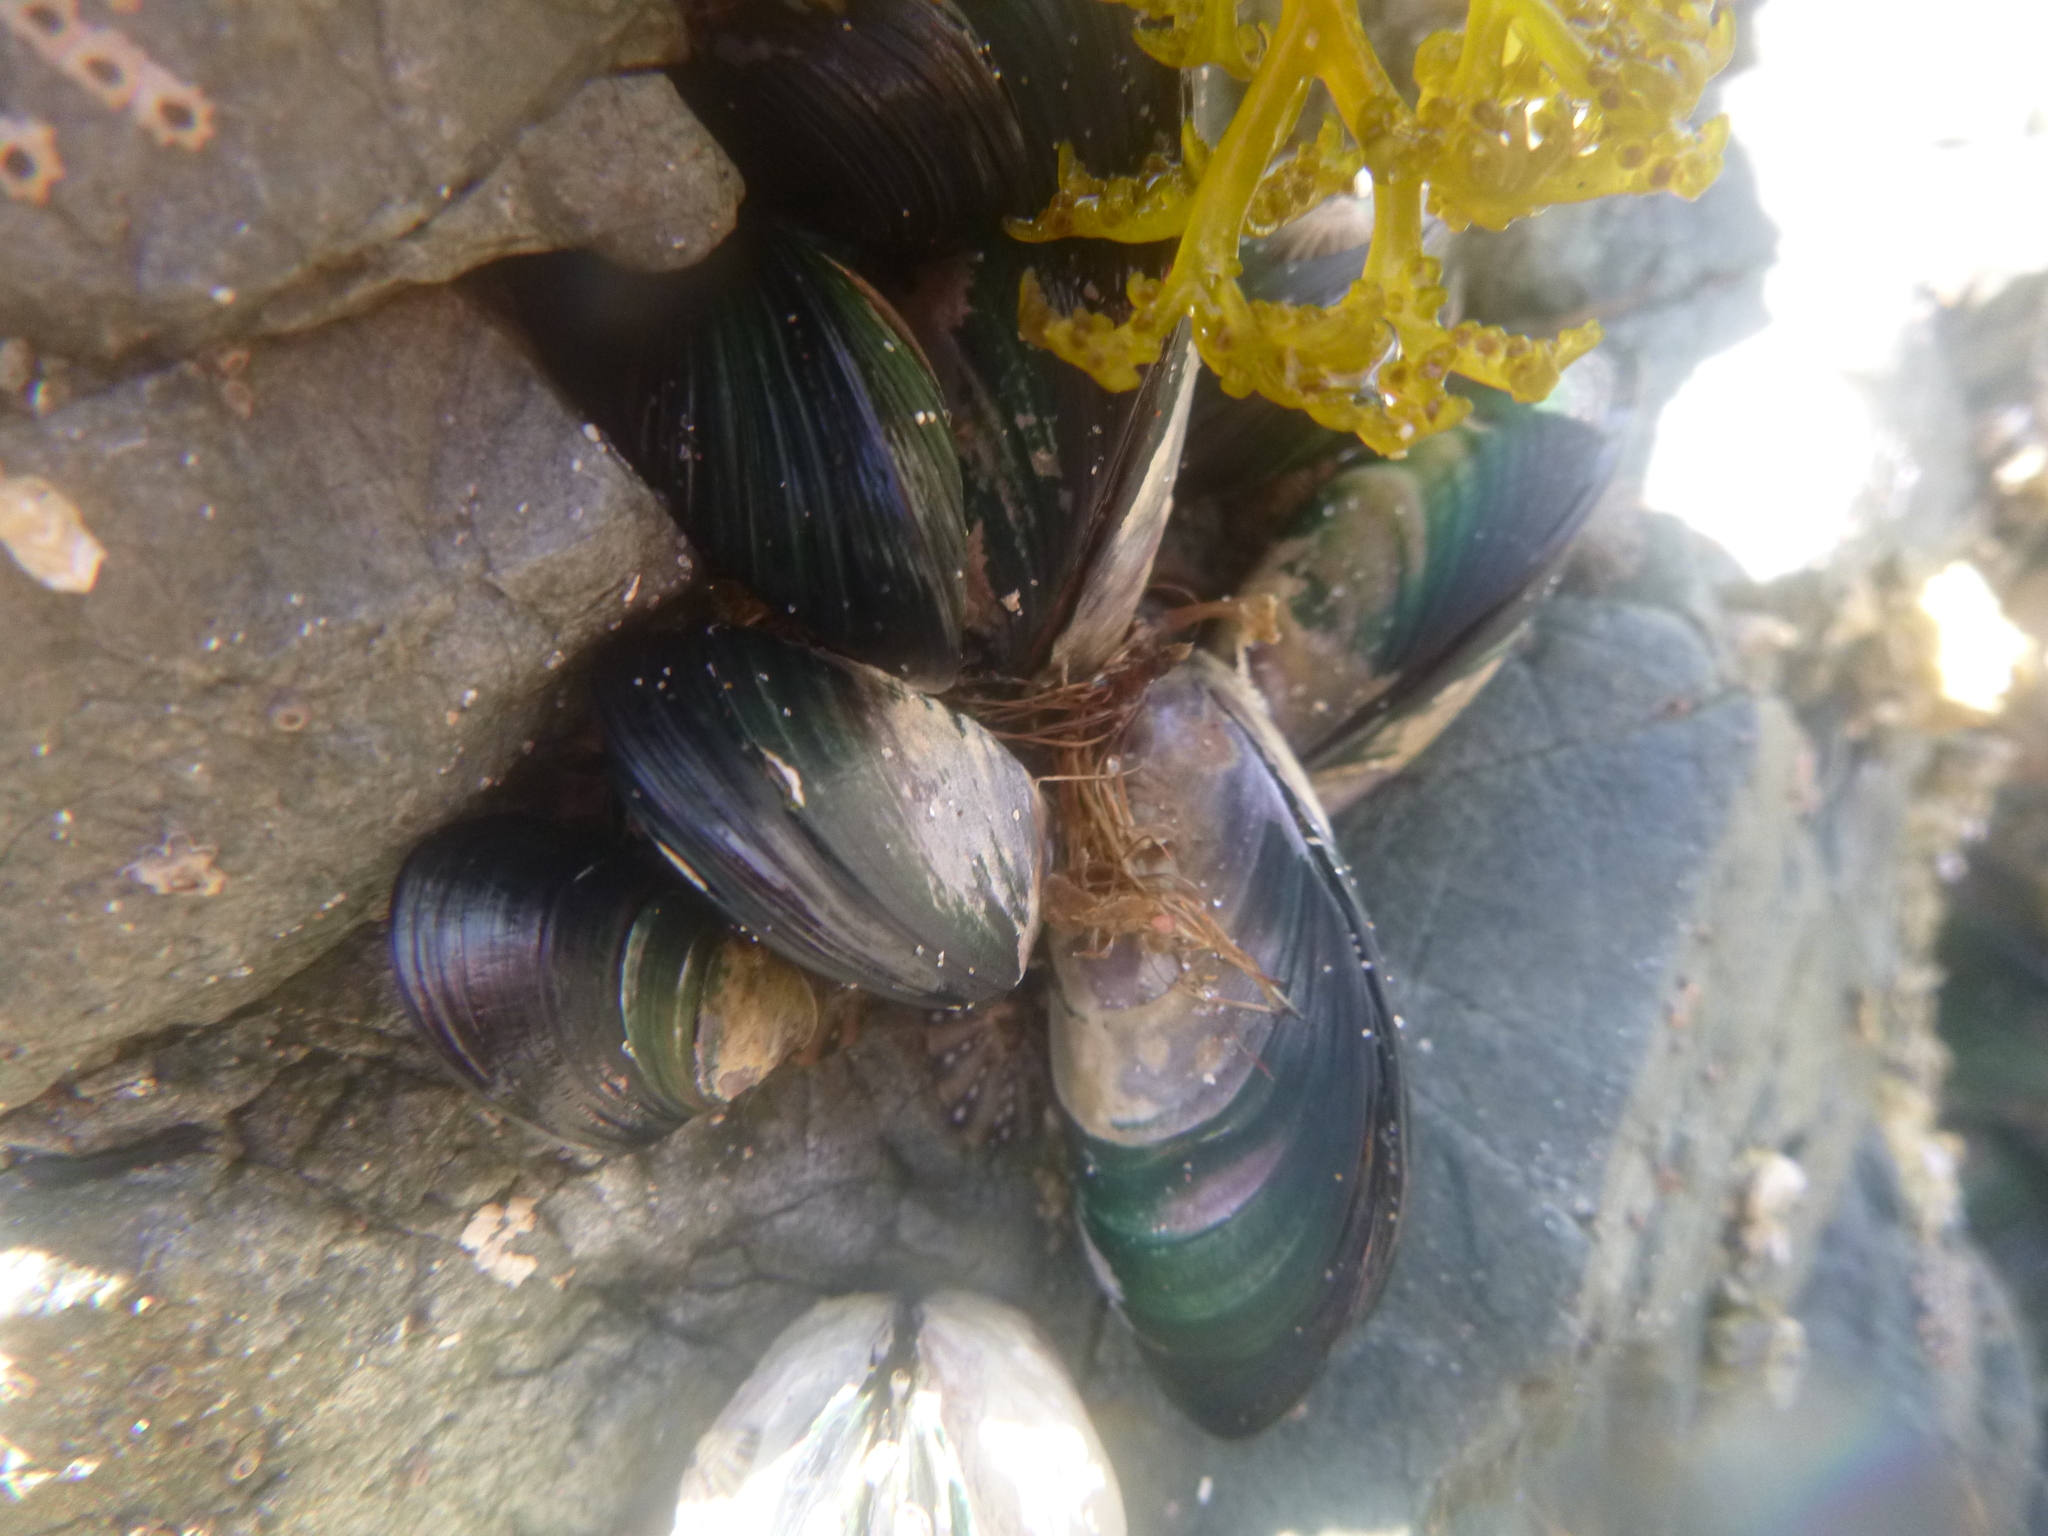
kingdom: Animalia
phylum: Mollusca
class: Bivalvia
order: Mytilida
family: Mytilidae
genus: Perna
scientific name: Perna canaliculus
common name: New zealand greenshelltm
